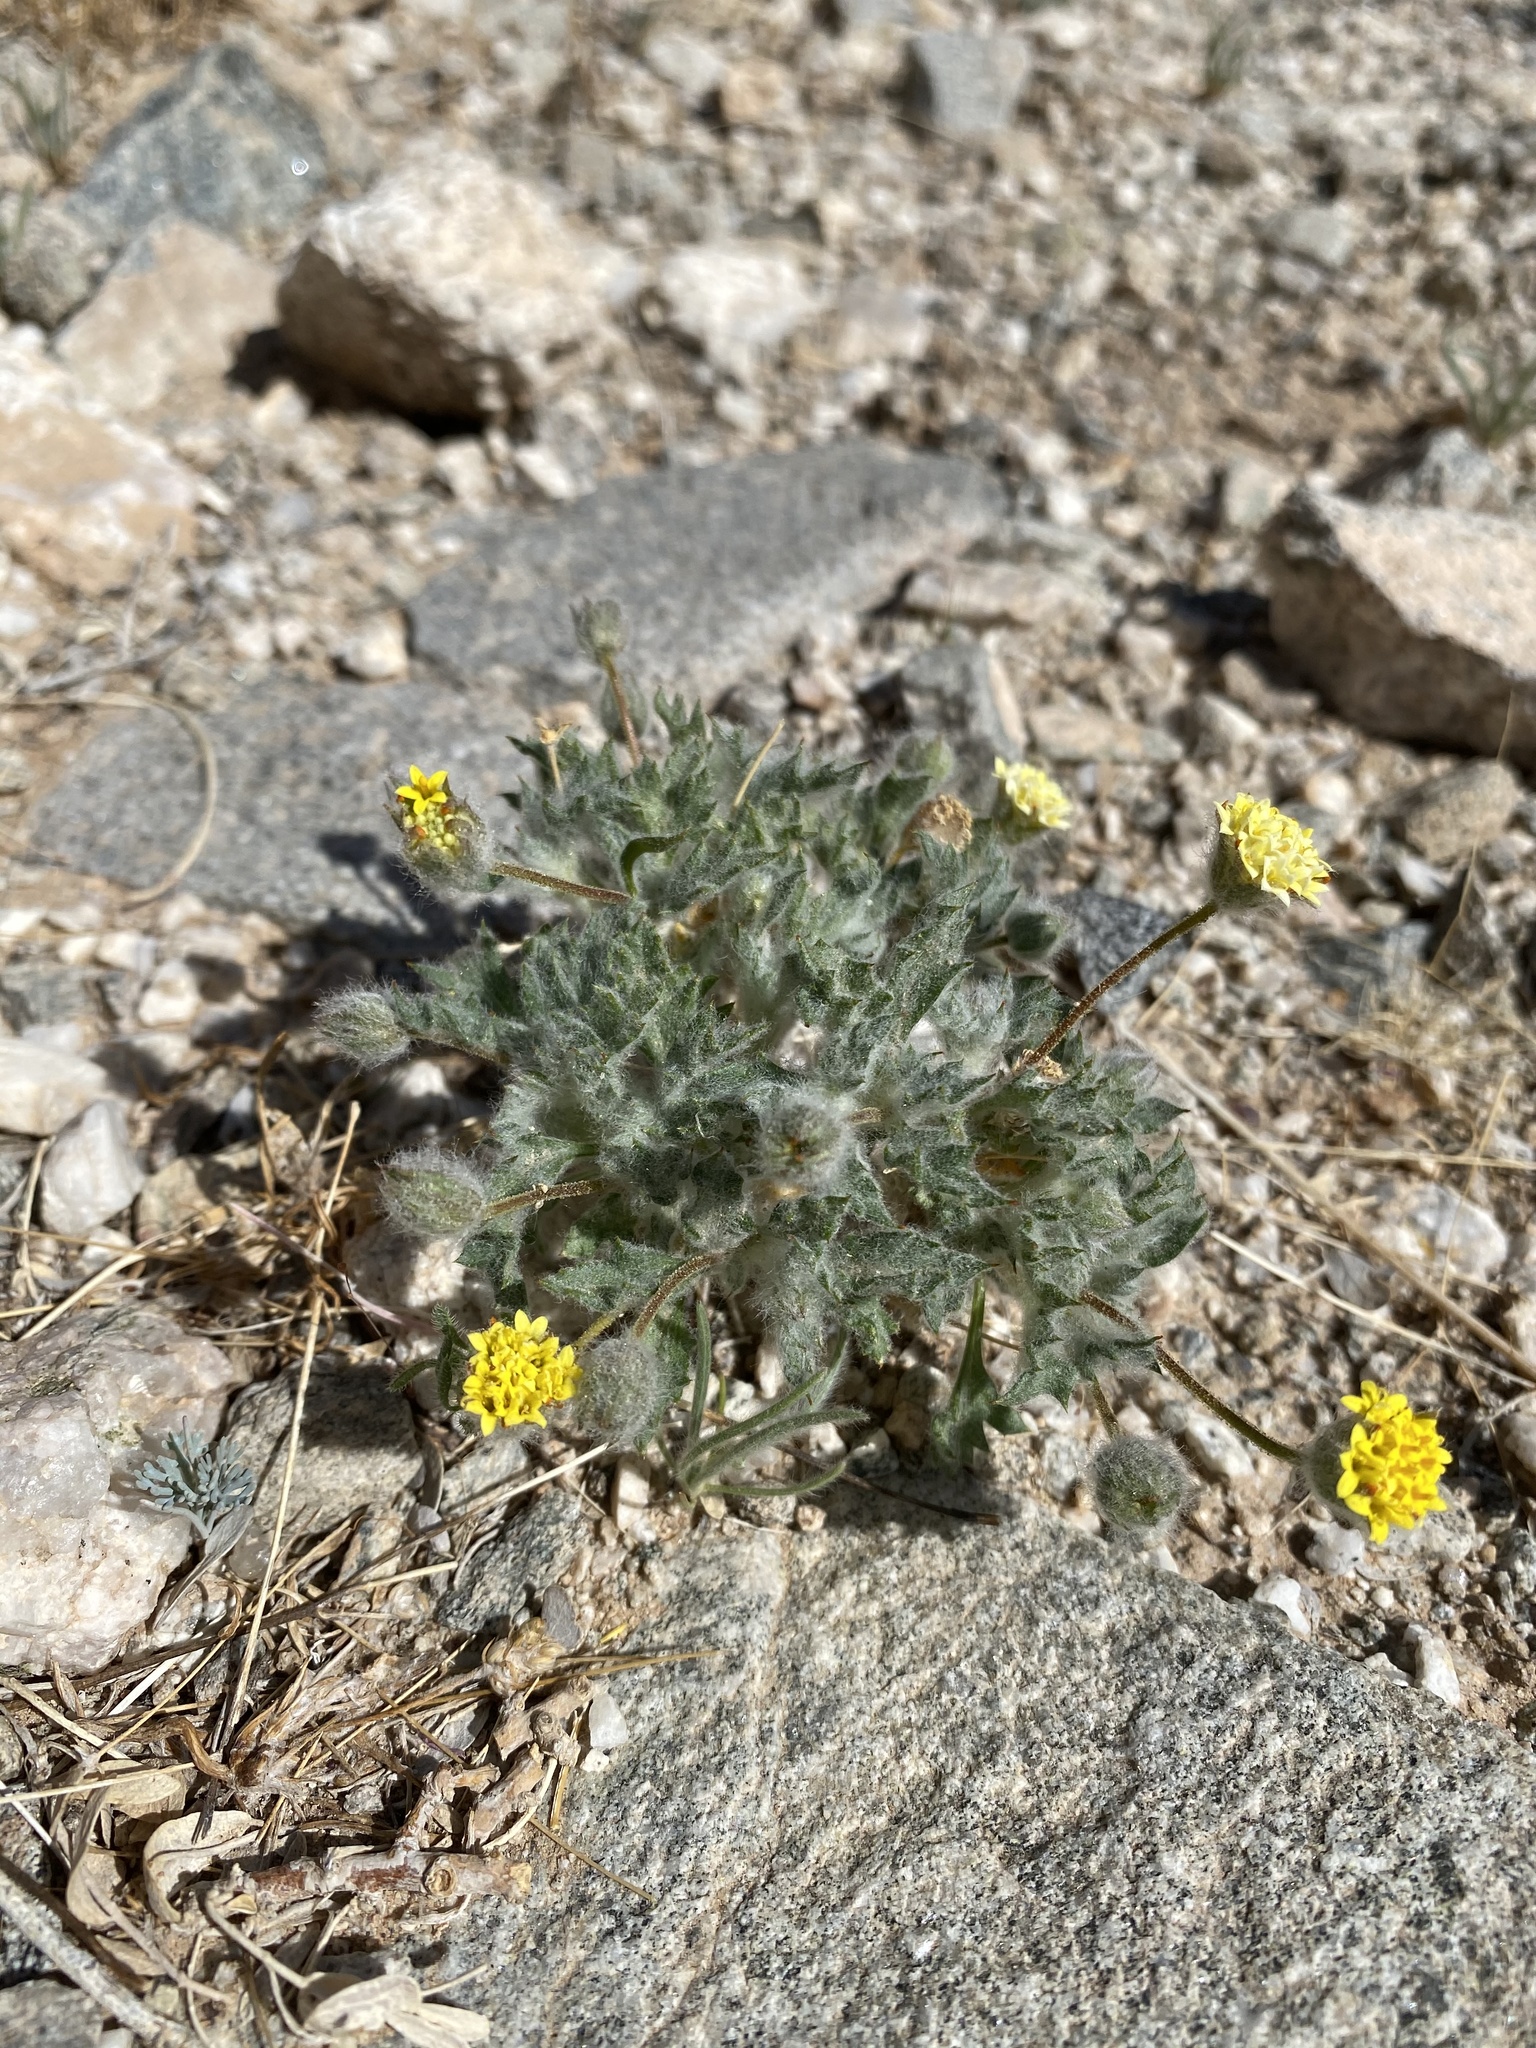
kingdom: Plantae
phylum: Tracheophyta
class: Magnoliopsida
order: Asterales
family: Asteraceae
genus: Trichoptilium
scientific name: Trichoptilium incisum
